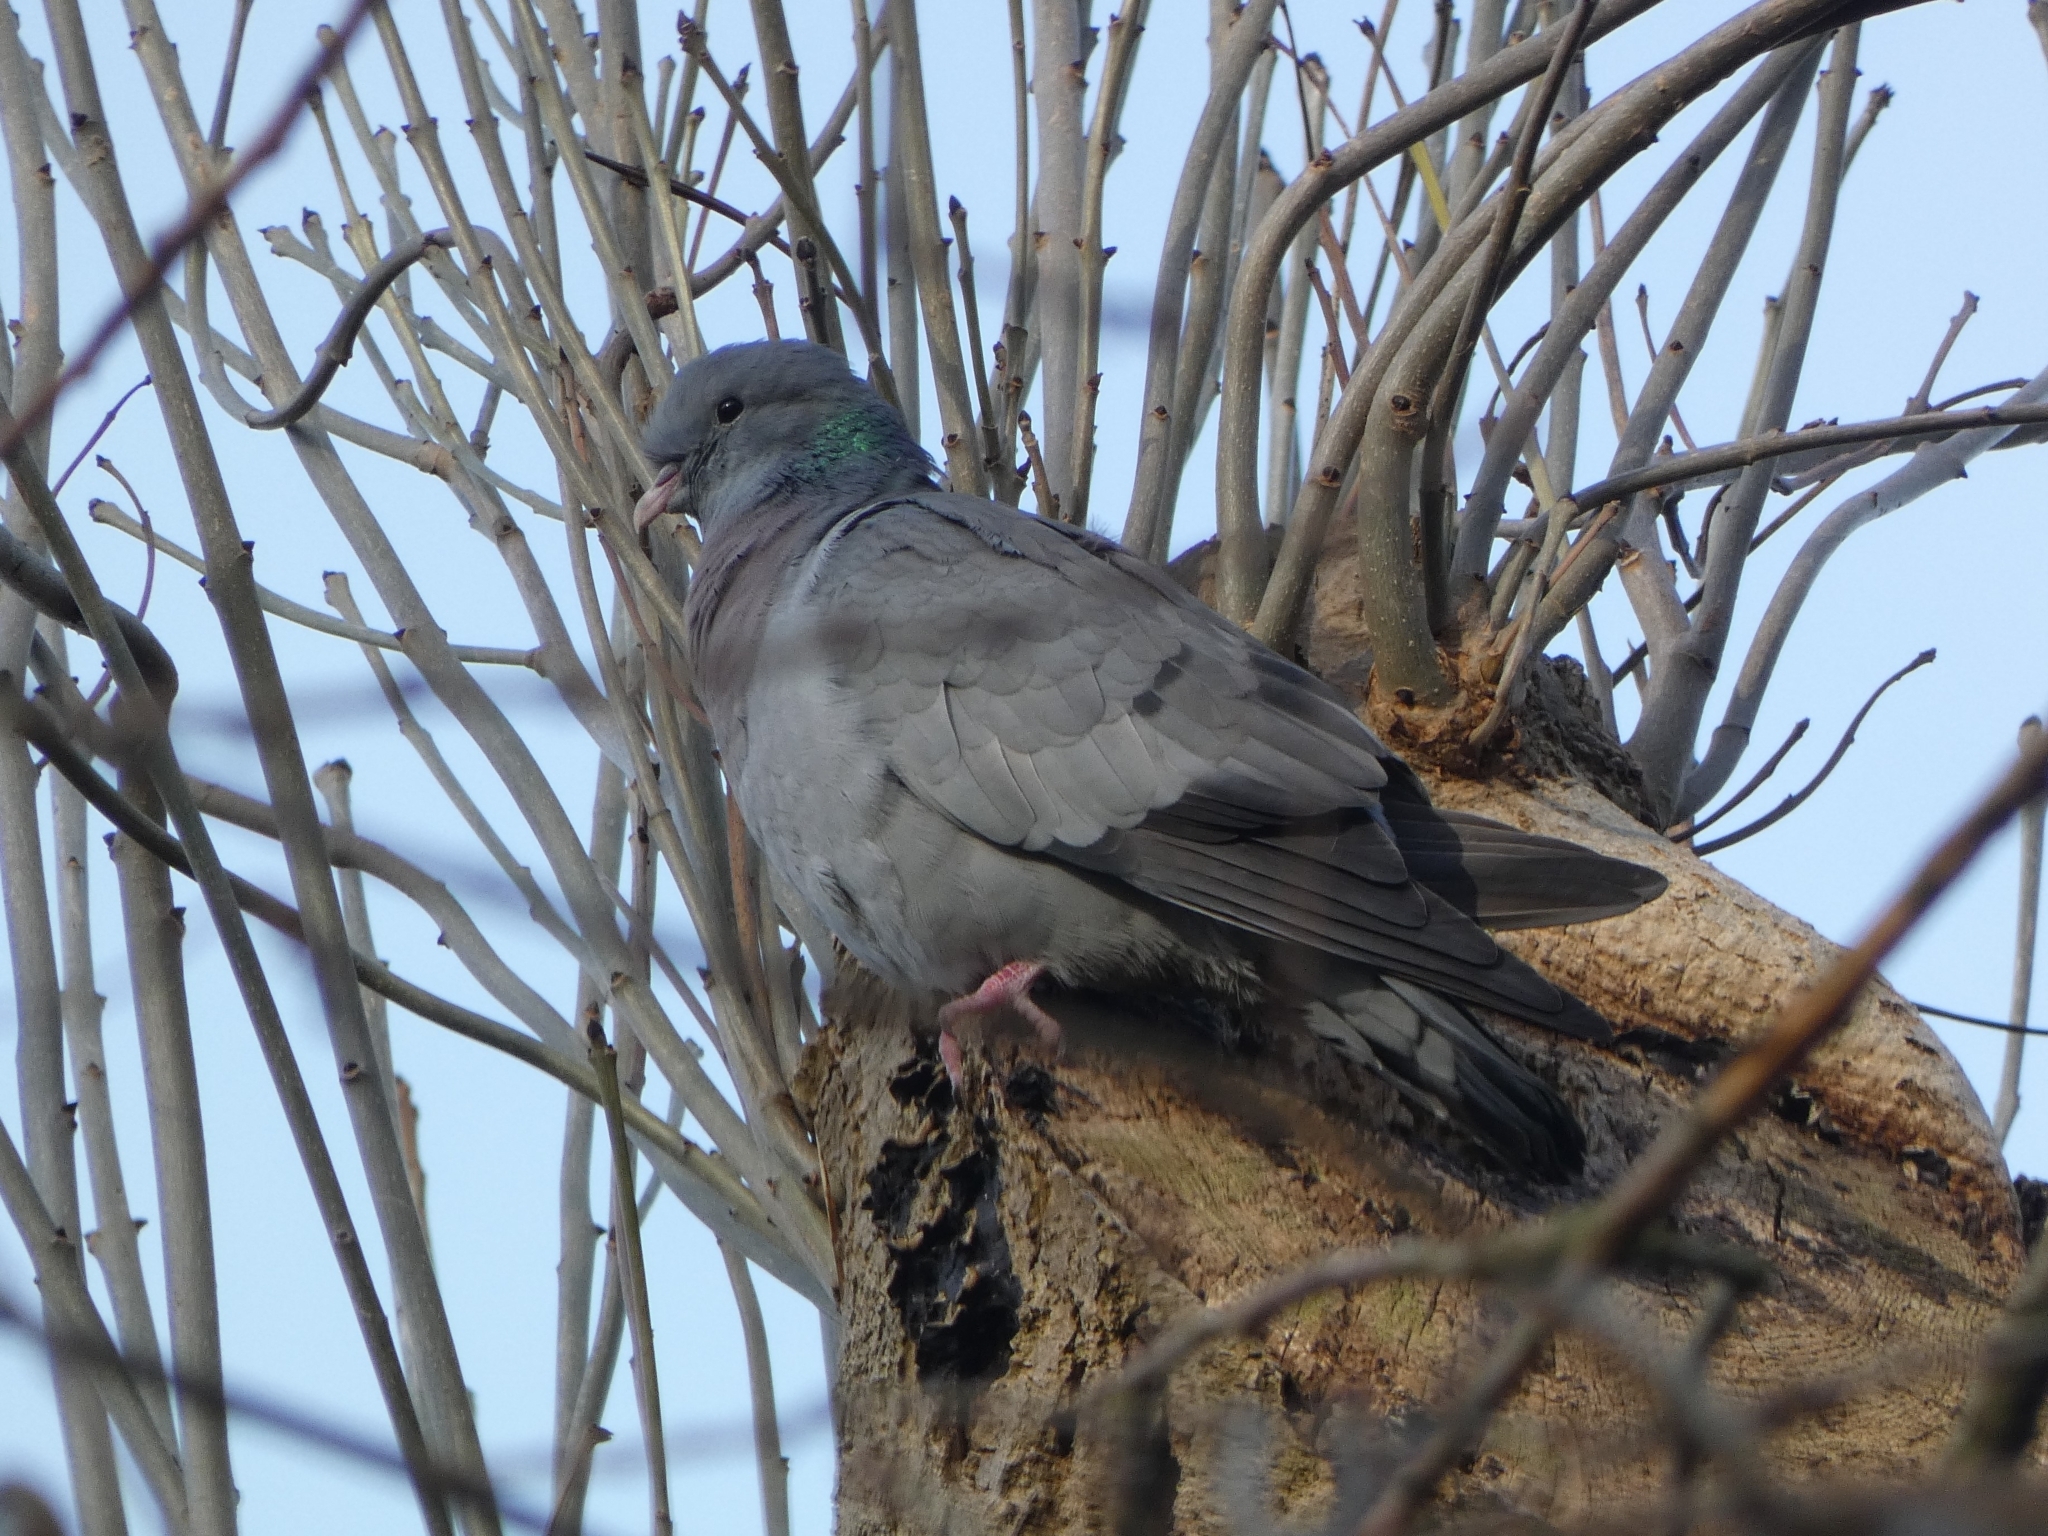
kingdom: Animalia
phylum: Chordata
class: Aves
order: Columbiformes
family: Columbidae
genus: Columba
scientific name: Columba oenas
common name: Stock dove
